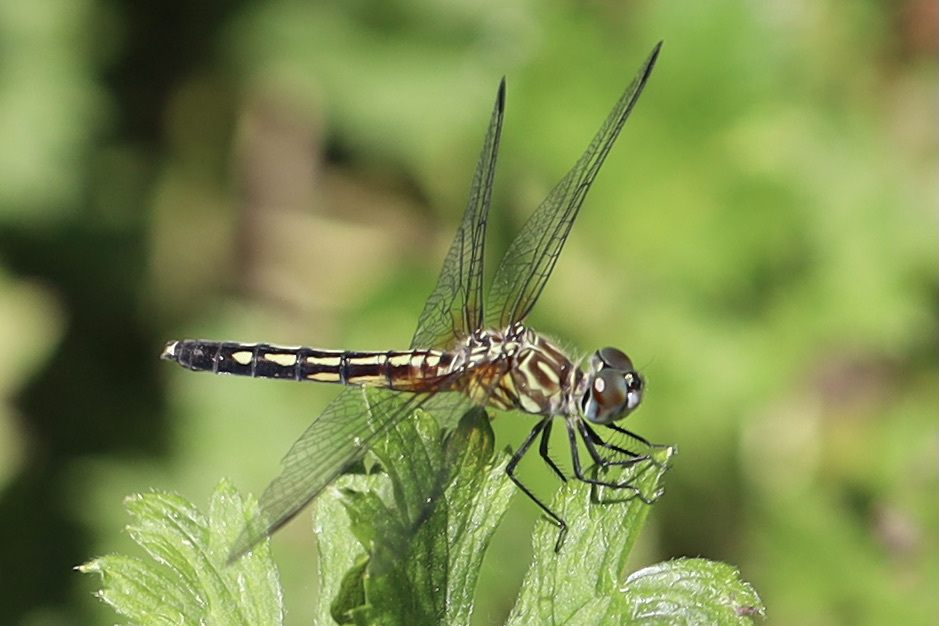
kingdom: Animalia
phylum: Arthropoda
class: Insecta
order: Odonata
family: Libellulidae
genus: Pachydiplax
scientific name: Pachydiplax longipennis
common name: Blue dasher
